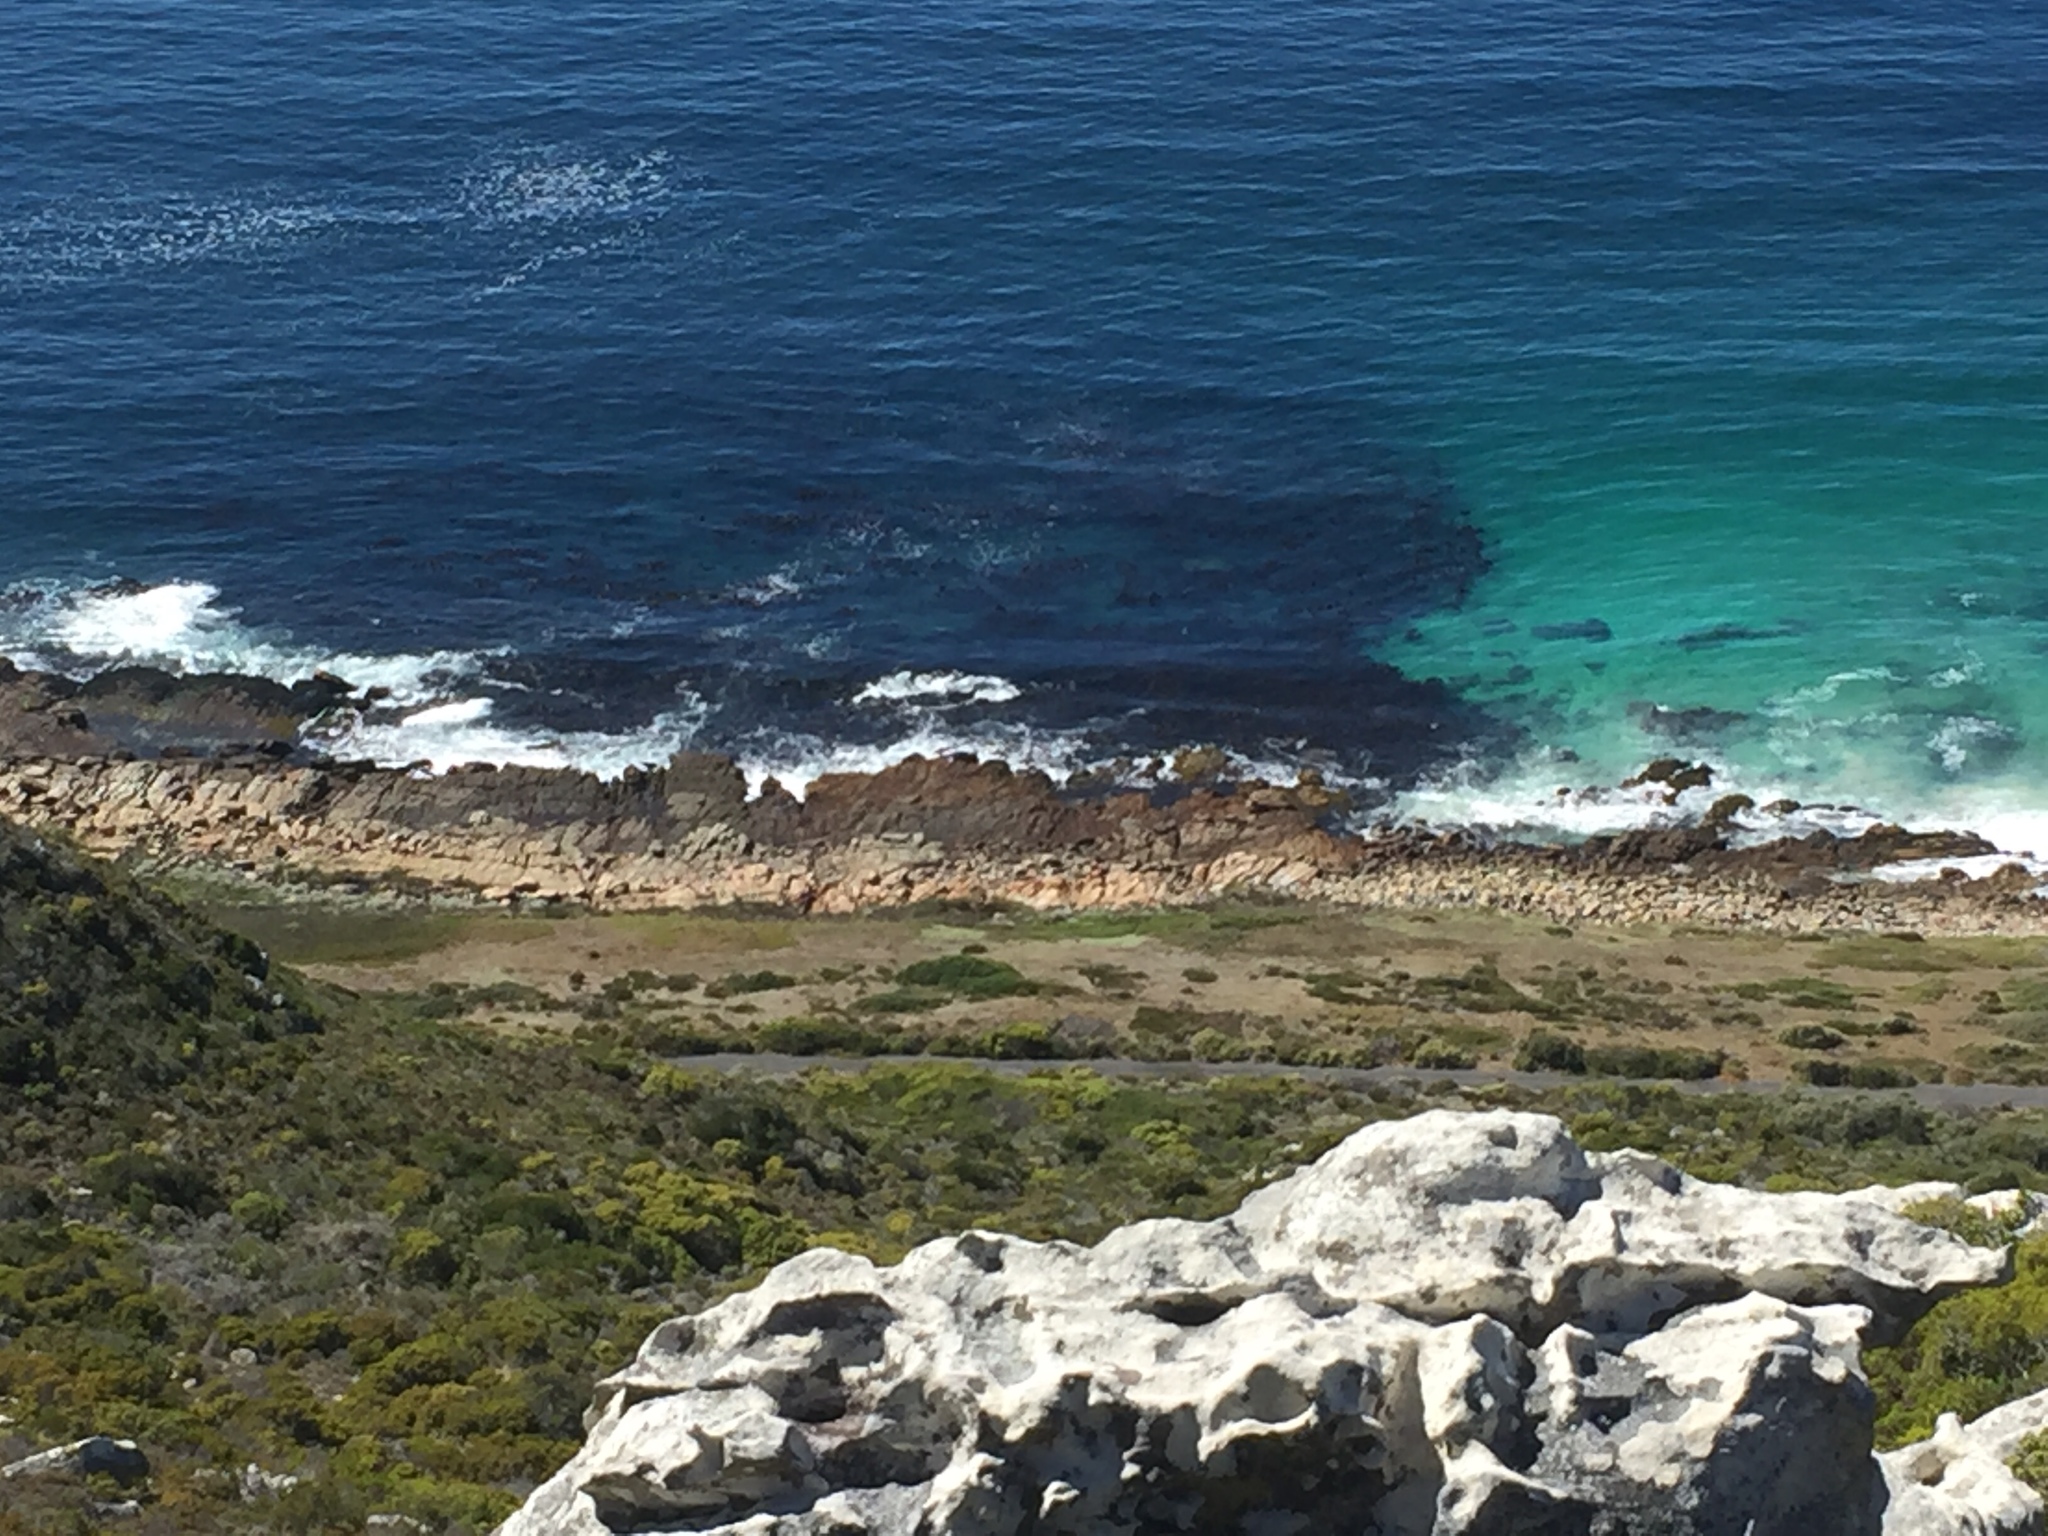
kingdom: Chromista
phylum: Ochrophyta
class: Phaeophyceae
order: Laminariales
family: Lessoniaceae
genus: Ecklonia
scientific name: Ecklonia
